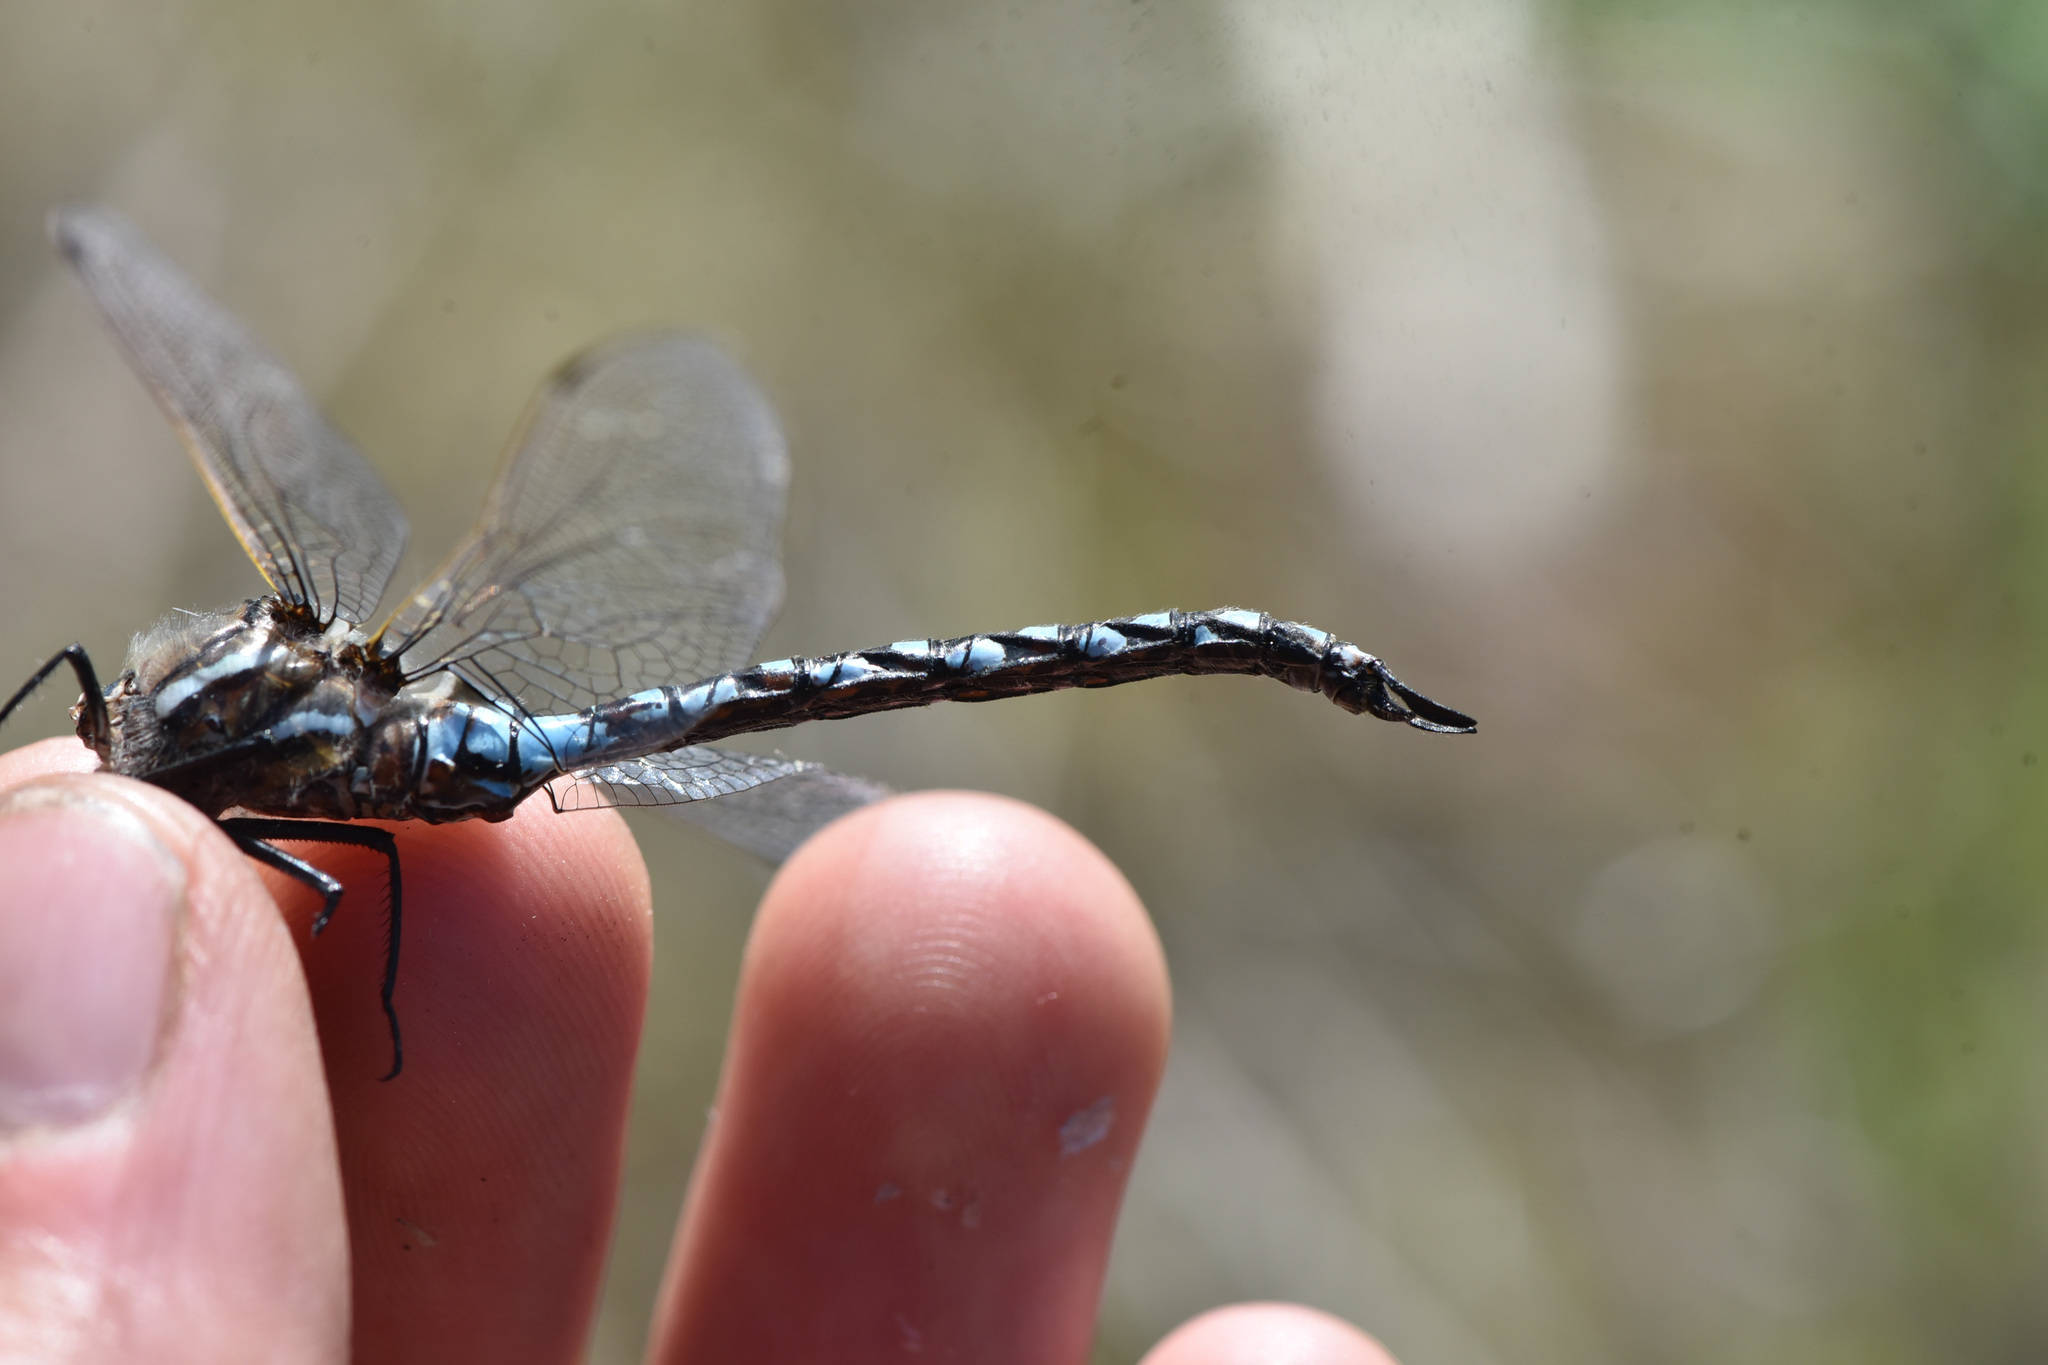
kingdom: Animalia
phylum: Arthropoda
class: Insecta
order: Odonata
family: Aeshnidae
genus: Rhionaeschna
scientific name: Rhionaeschna californica
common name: California darner
